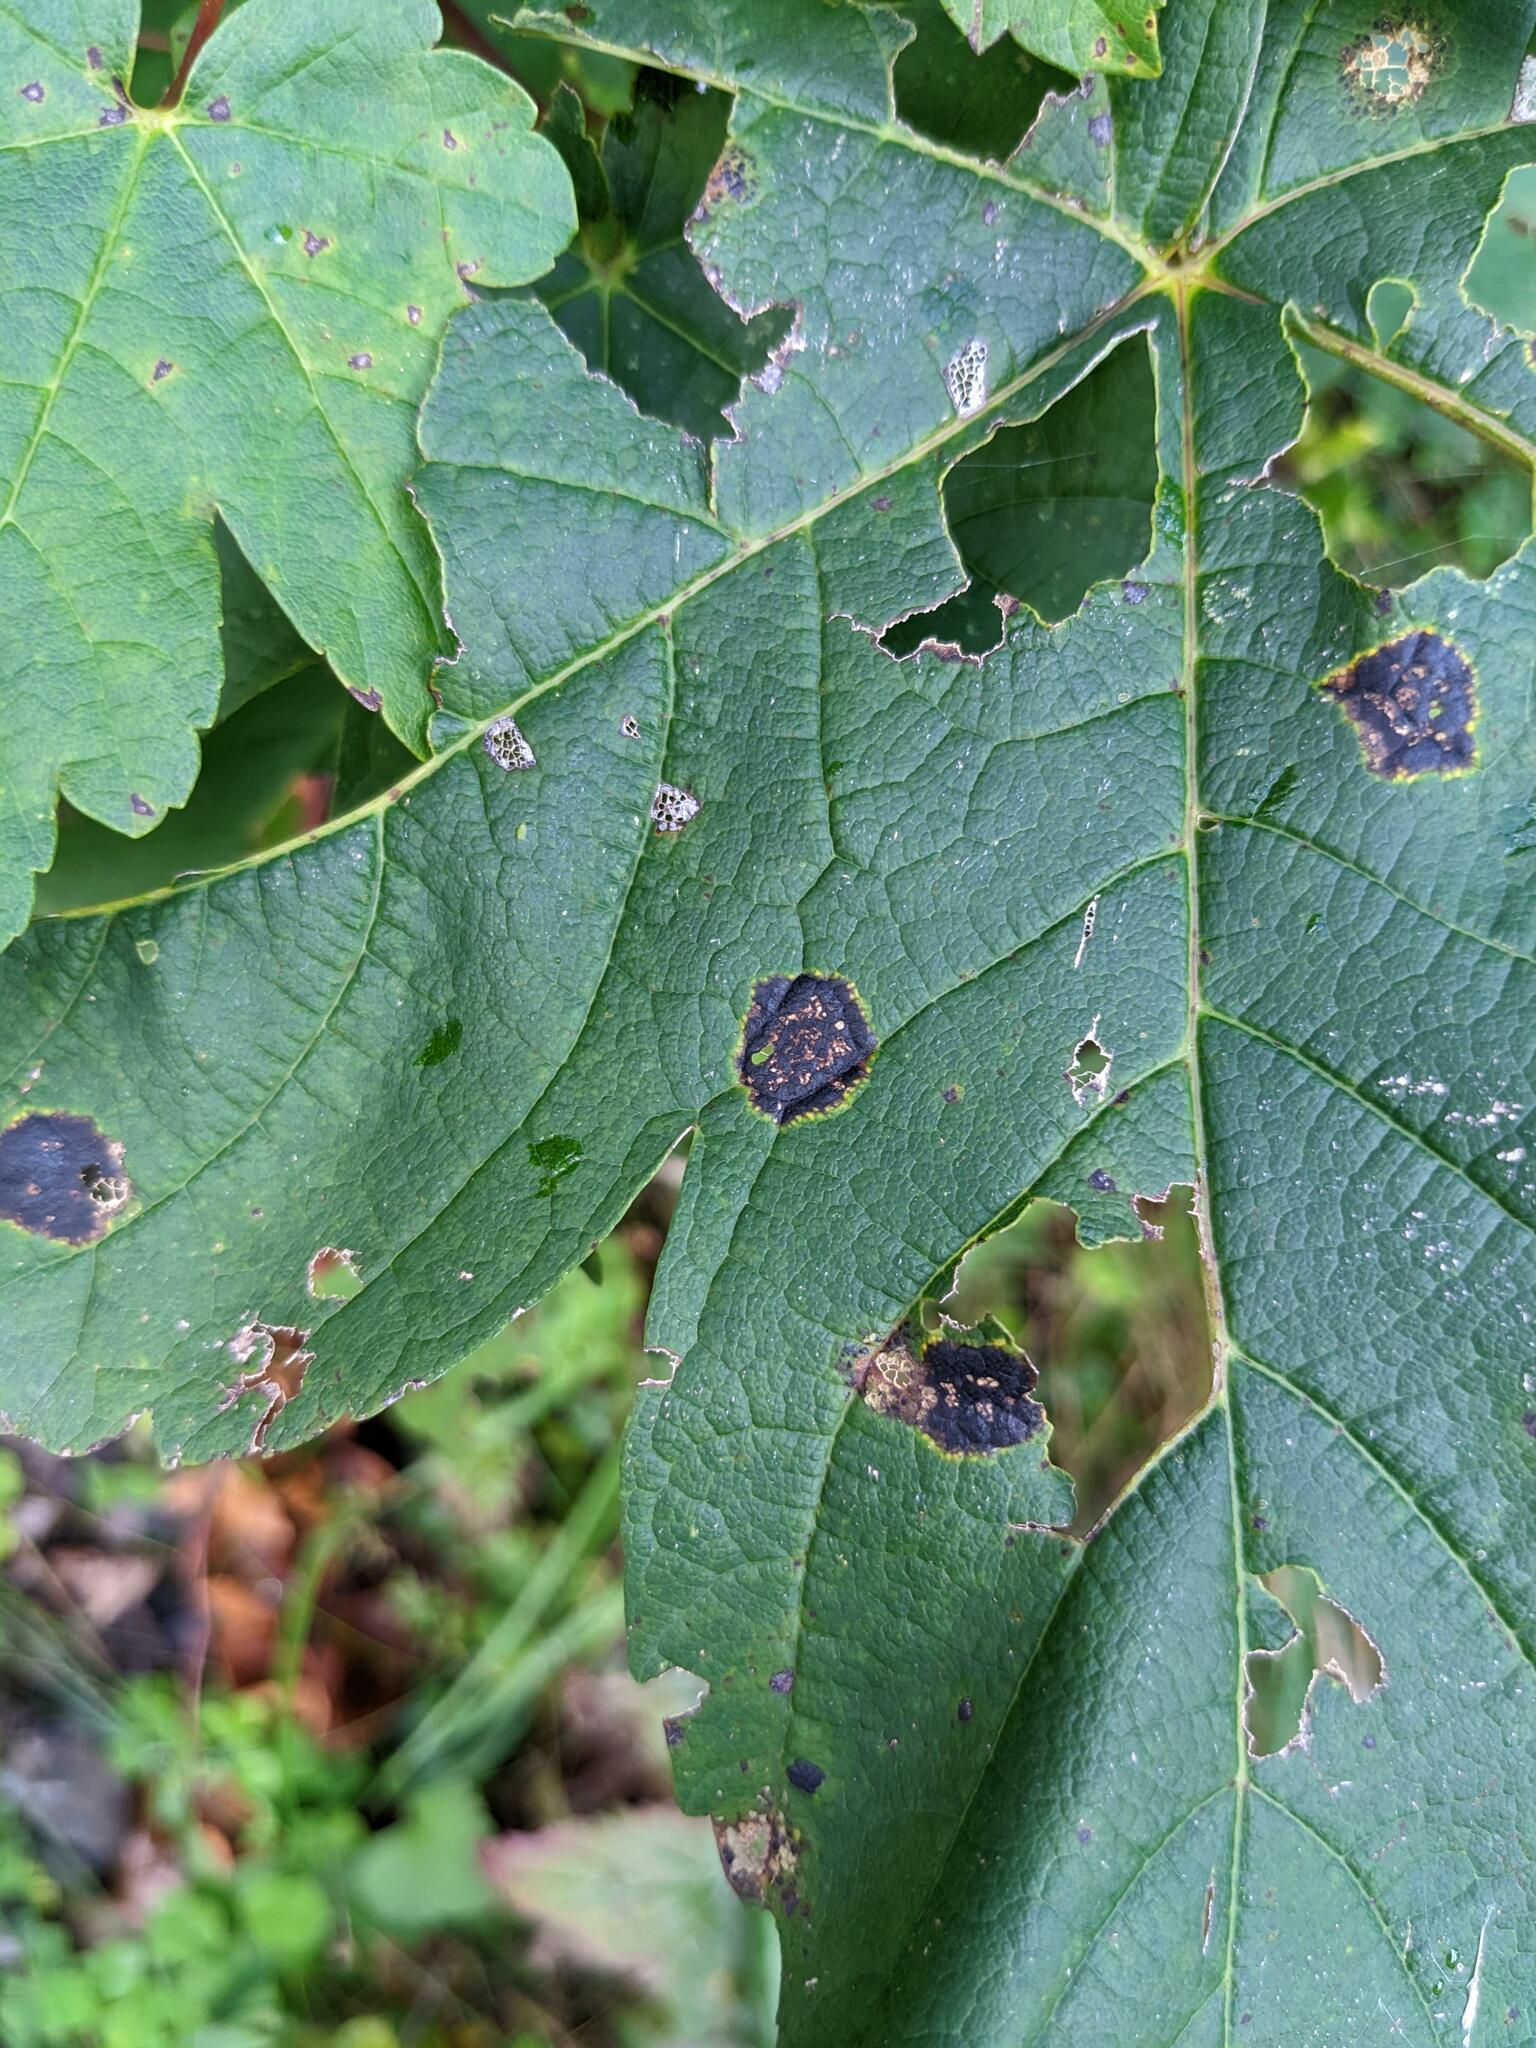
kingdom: Fungi
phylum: Ascomycota
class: Leotiomycetes
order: Rhytismatales
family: Rhytismataceae
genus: Rhytisma
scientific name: Rhytisma acerinum
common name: European tar spot
